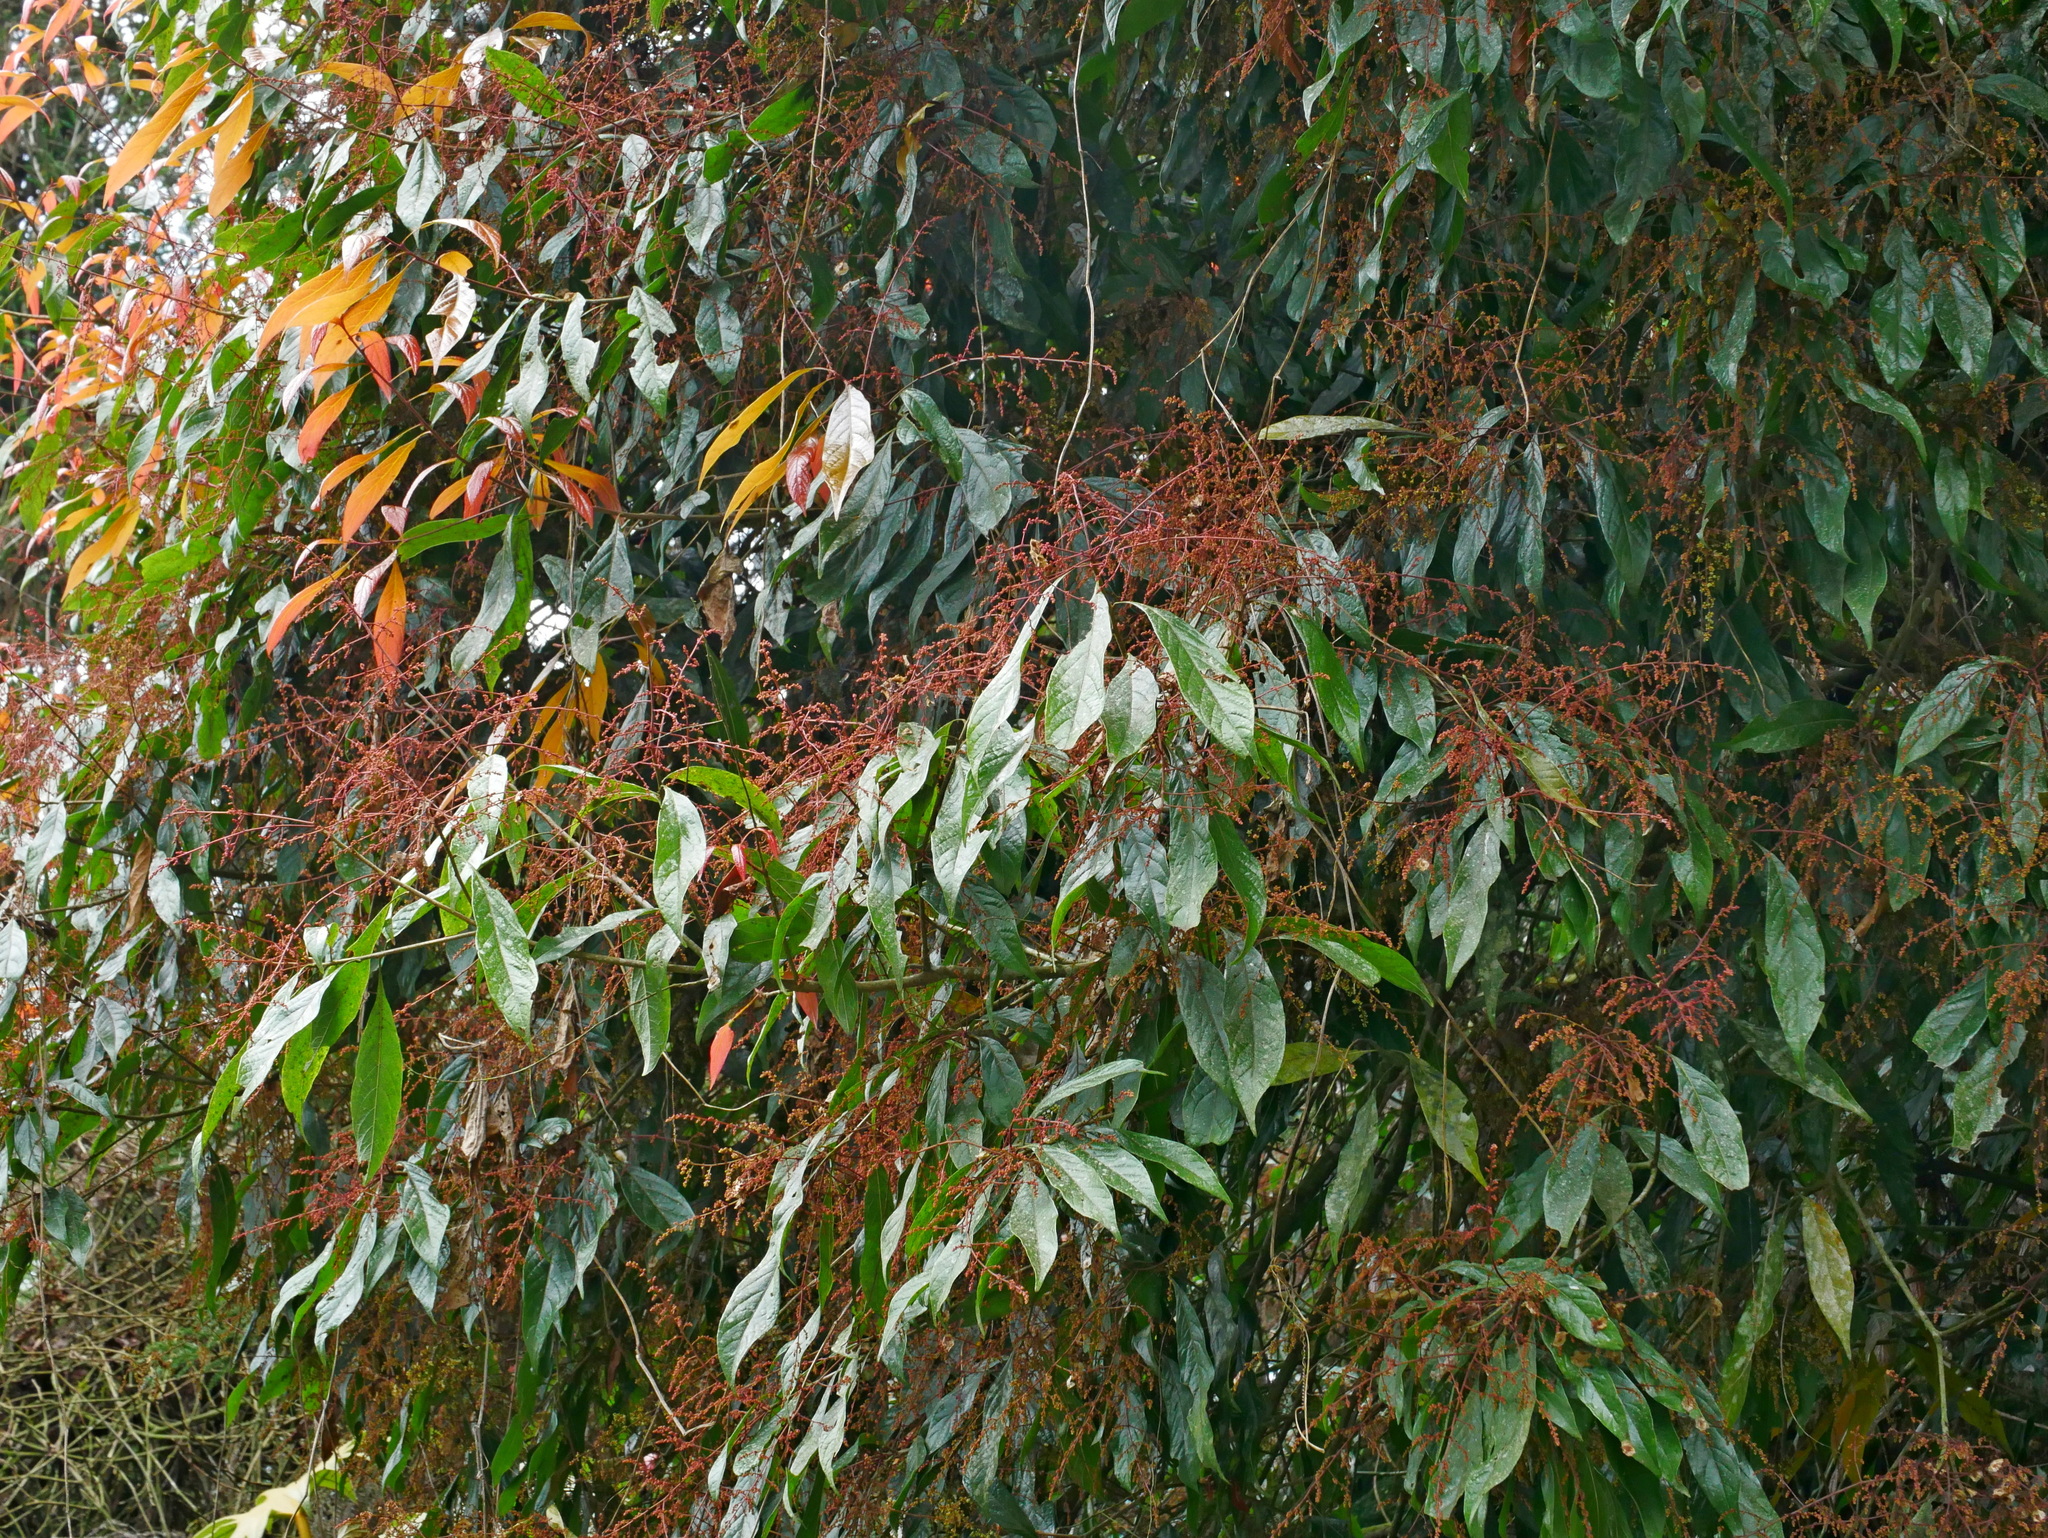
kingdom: Plantae
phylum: Tracheophyta
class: Magnoliopsida
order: Proteales
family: Sabiaceae
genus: Meliosma
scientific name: Meliosma callicarpifolia
